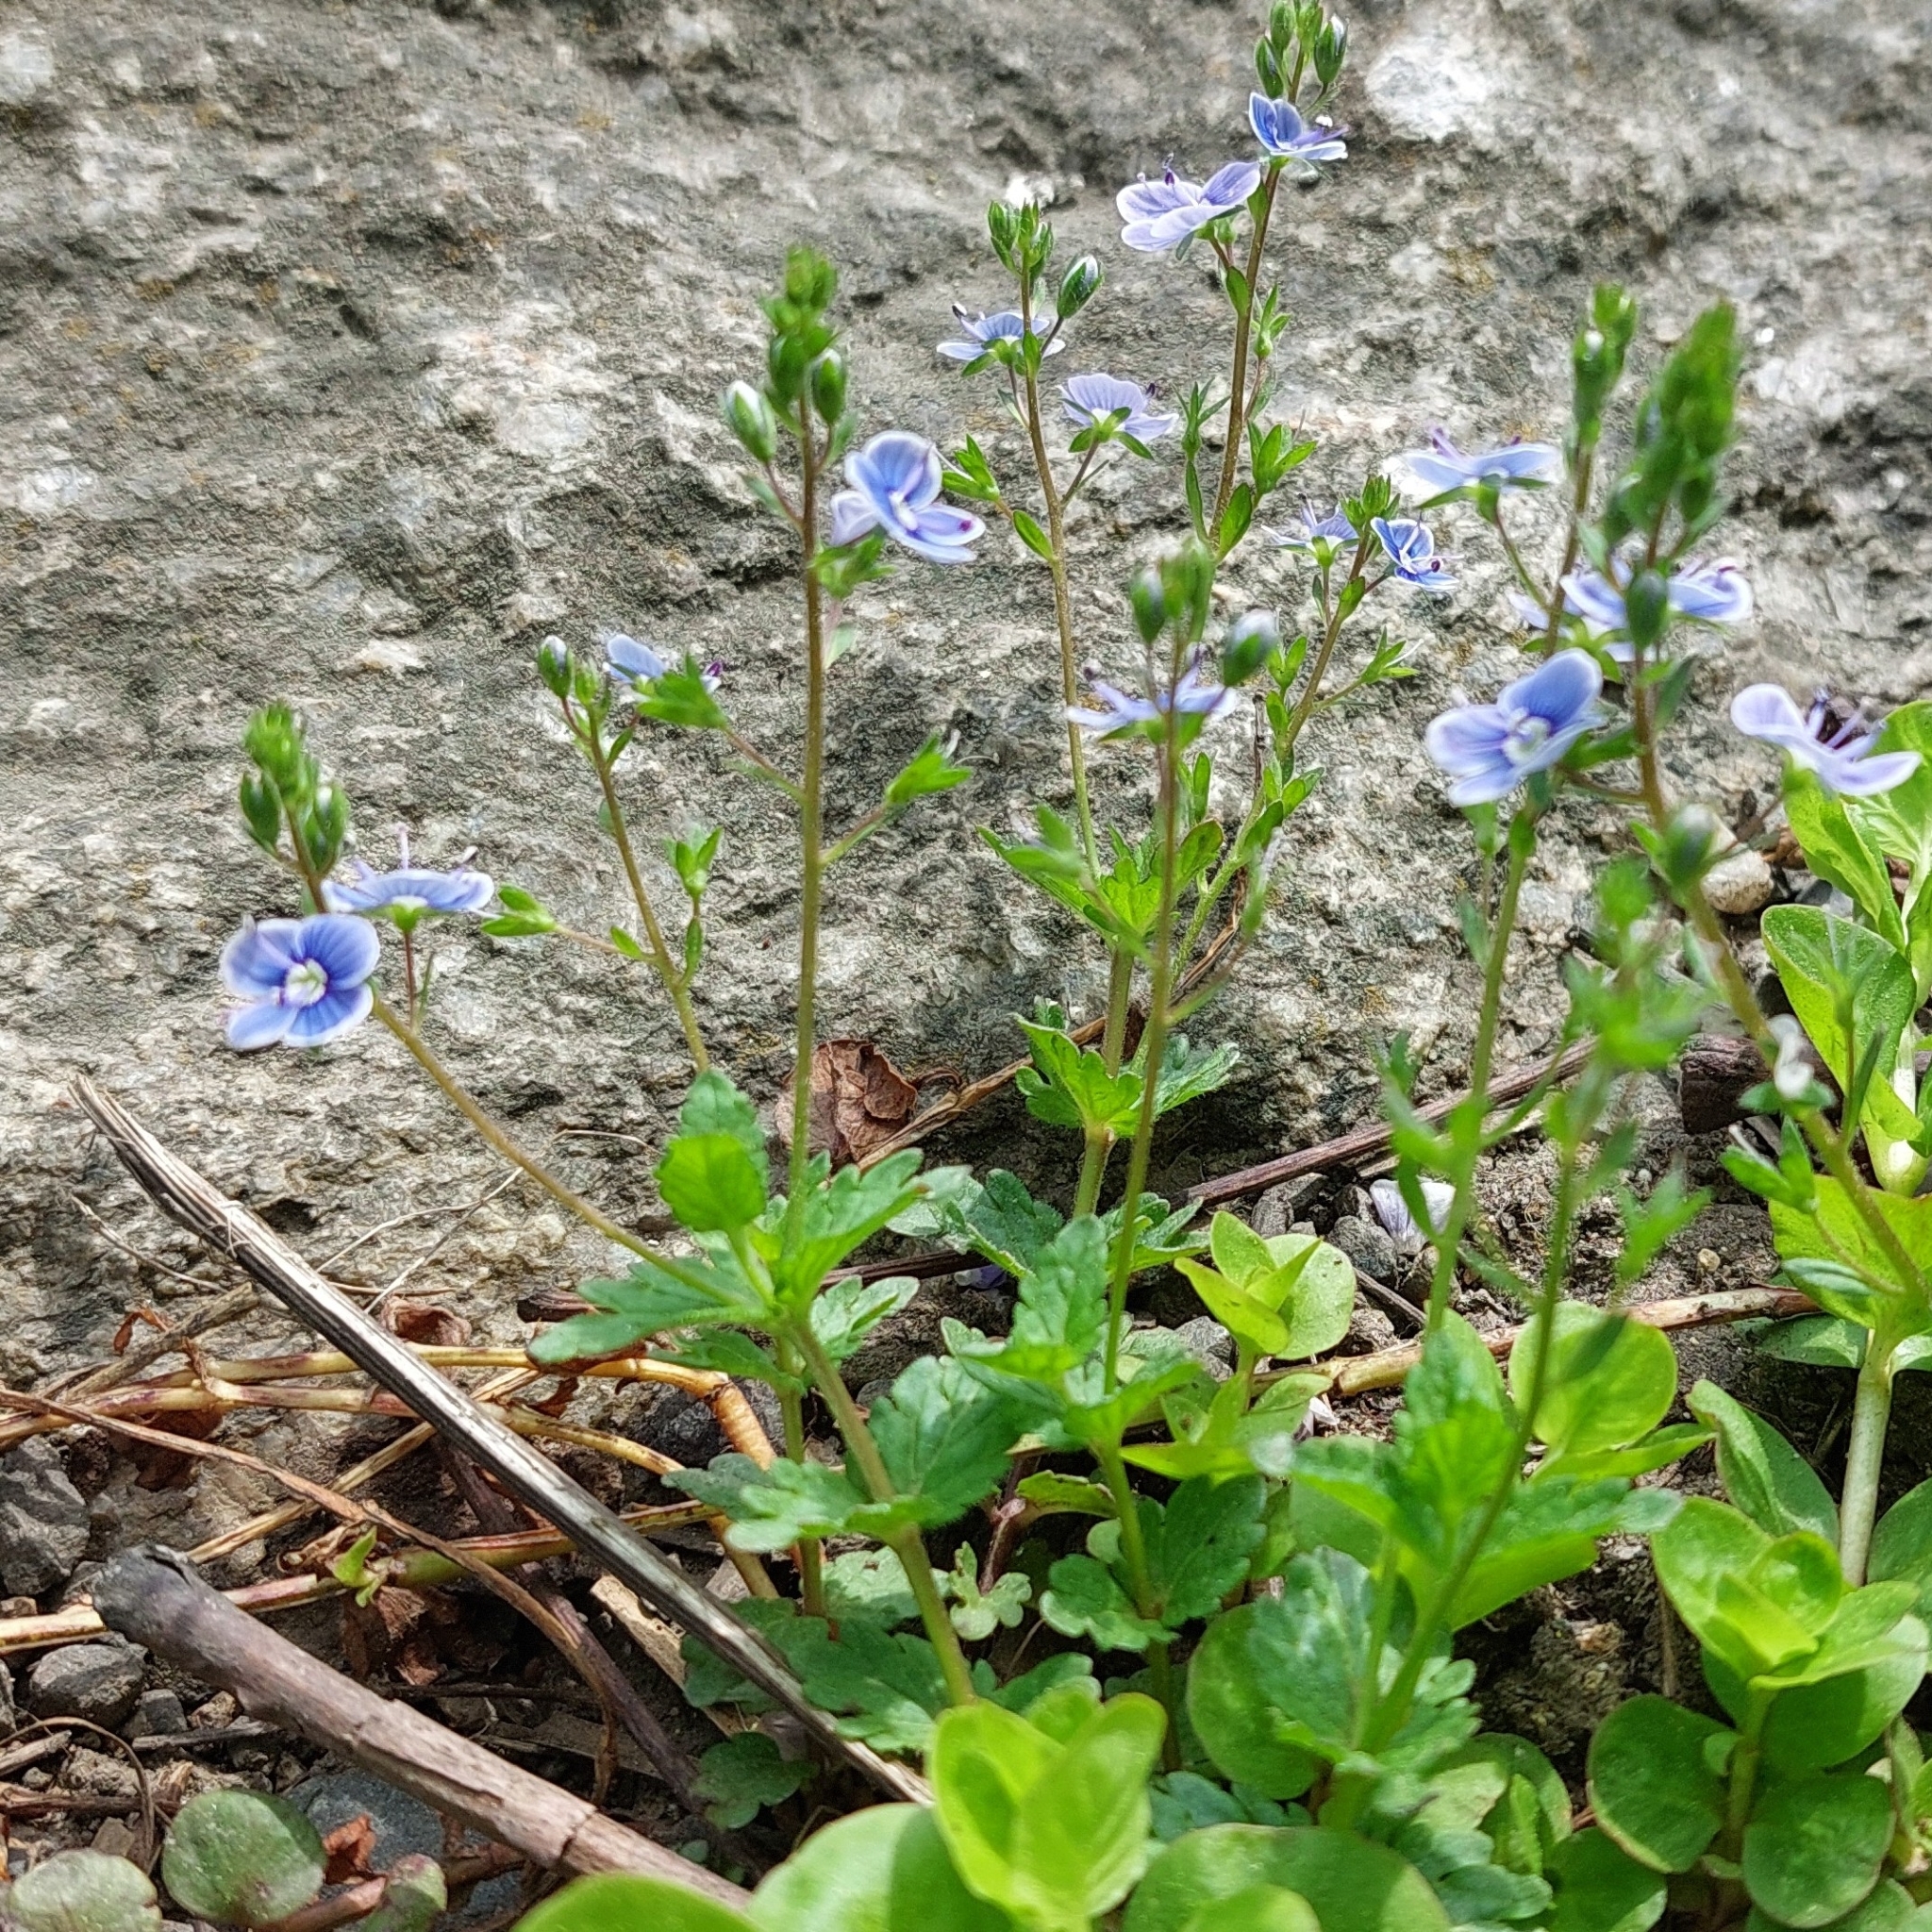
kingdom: Plantae
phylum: Tracheophyta
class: Magnoliopsida
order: Lamiales
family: Plantaginaceae
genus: Veronica
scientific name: Veronica chamaedrys
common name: Germander speedwell
